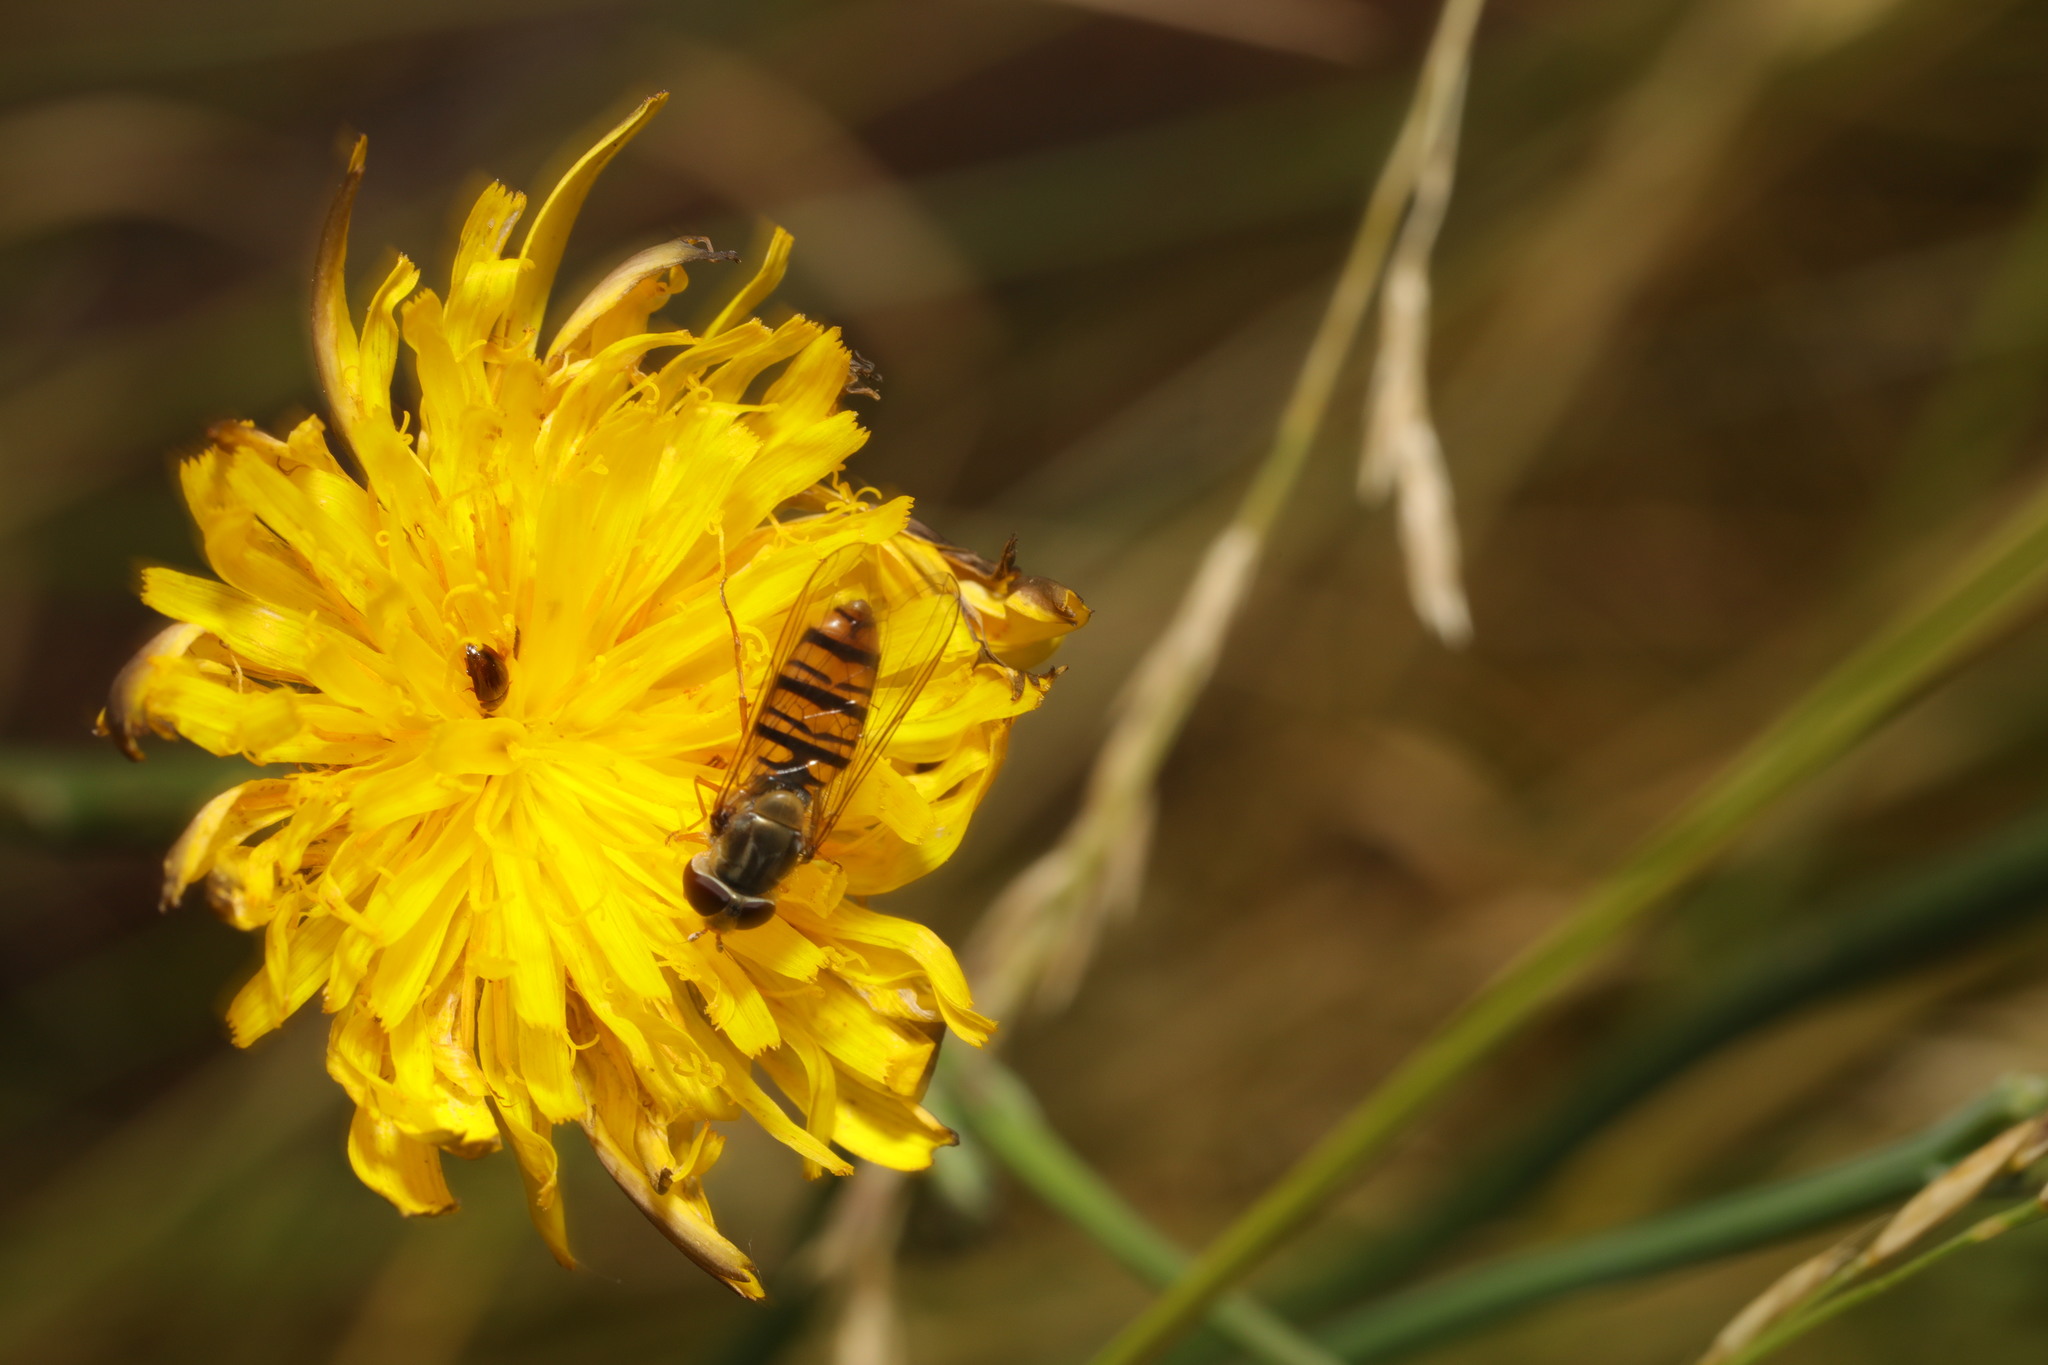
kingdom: Animalia
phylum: Arthropoda
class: Insecta
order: Diptera
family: Syrphidae
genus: Episyrphus
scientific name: Episyrphus balteatus
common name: Marmalade hoverfly
